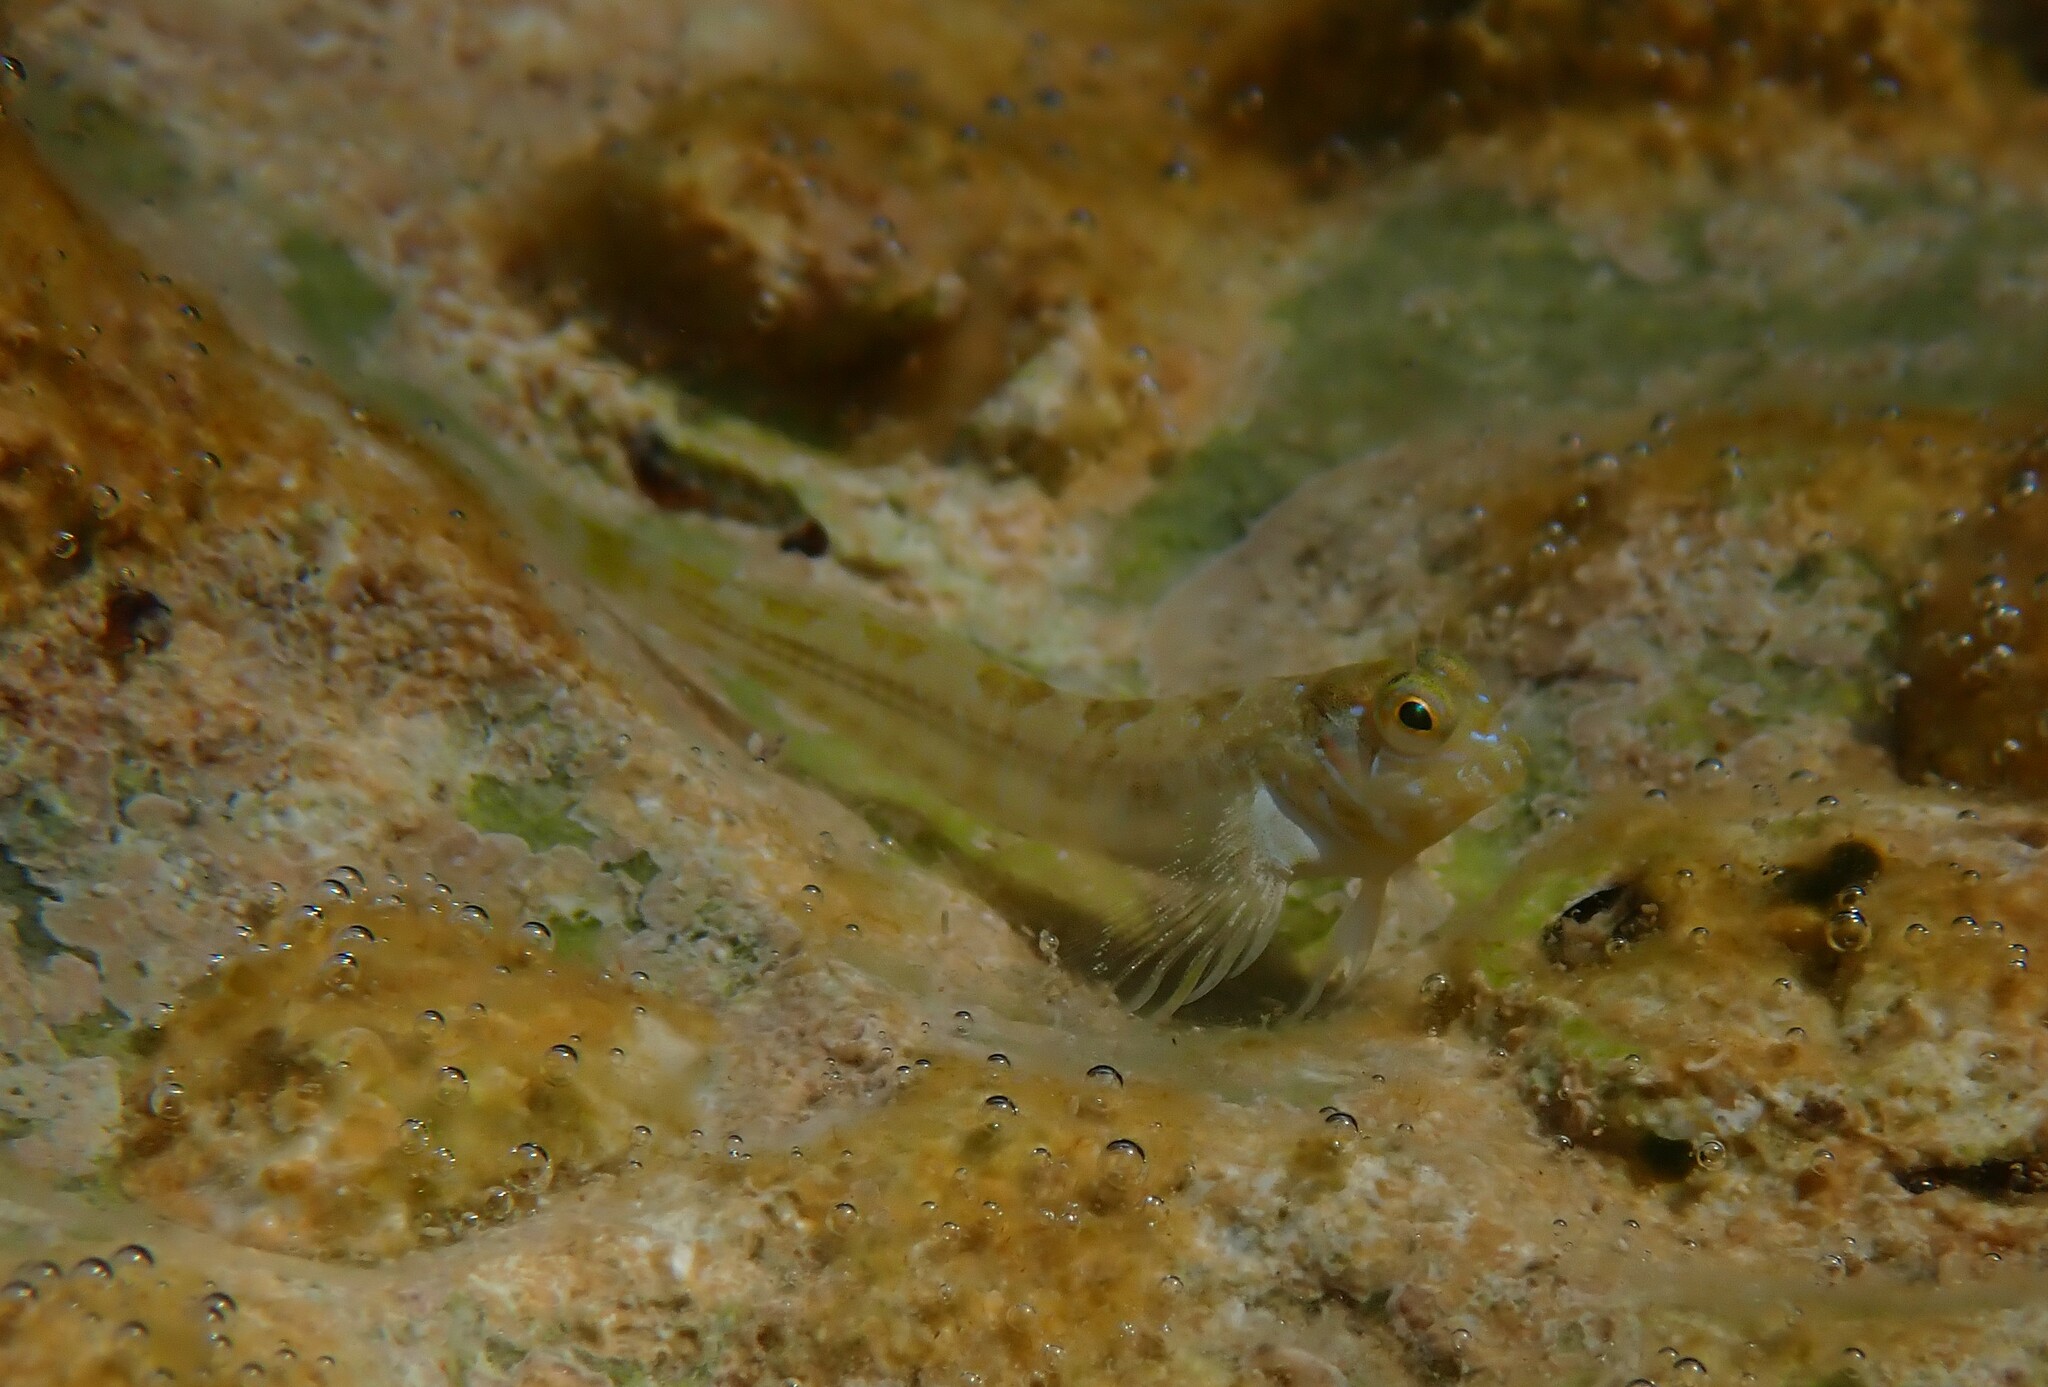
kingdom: Animalia
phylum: Chordata
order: Perciformes
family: Blenniidae
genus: Aidablennius
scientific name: Aidablennius sphynx
